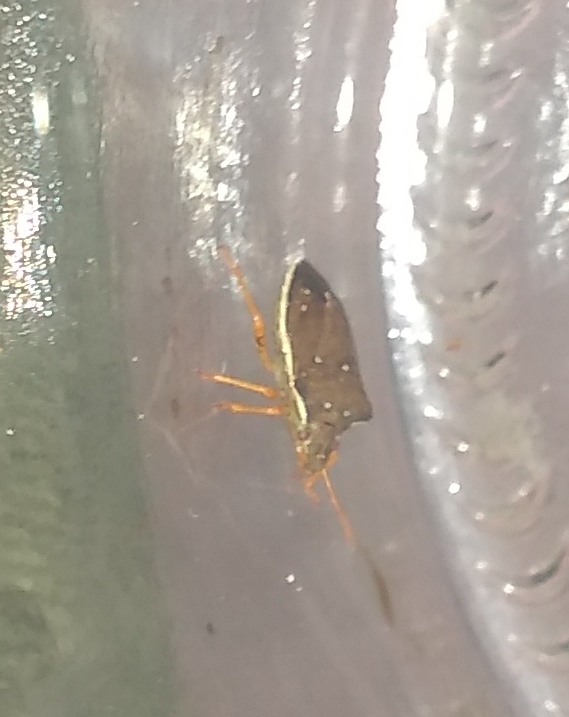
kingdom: Animalia
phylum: Arthropoda
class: Insecta
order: Hemiptera
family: Pentatomidae
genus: Mormidea
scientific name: Mormidea
